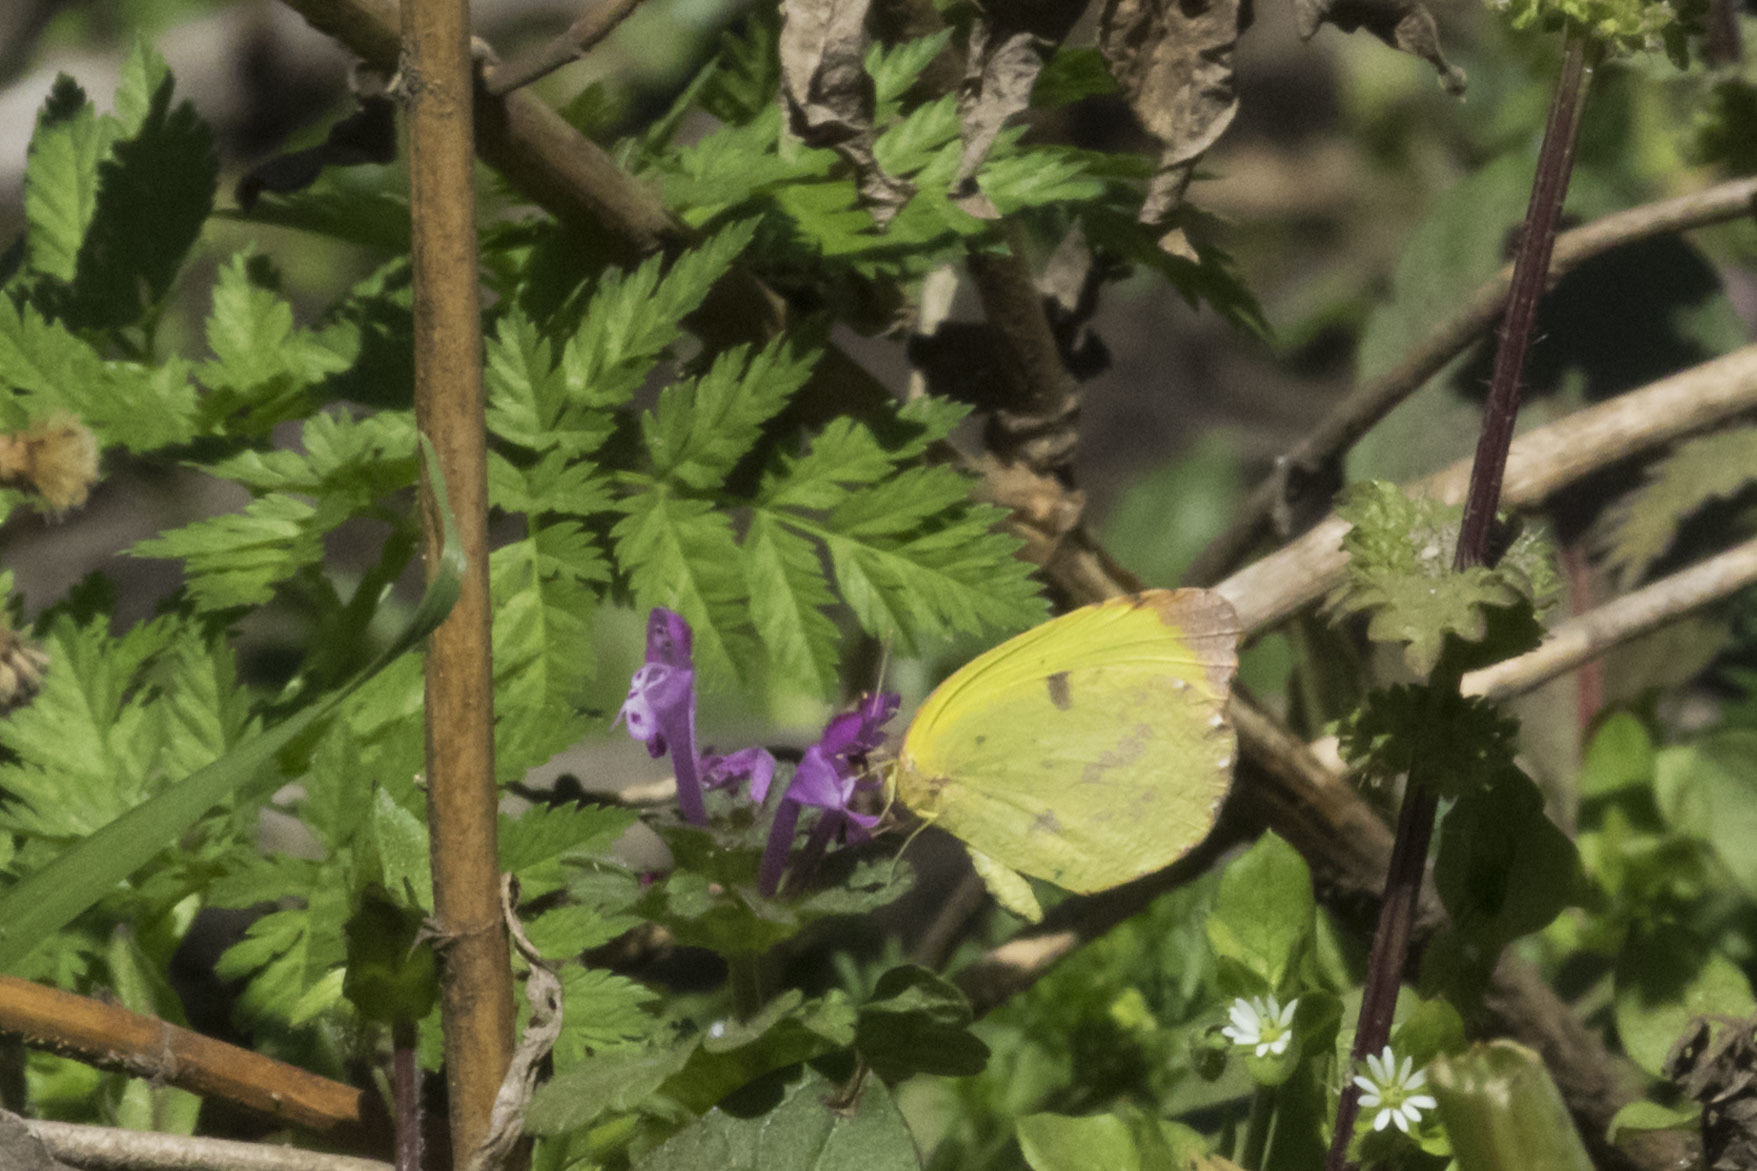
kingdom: Animalia
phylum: Arthropoda
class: Insecta
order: Lepidoptera
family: Pieridae
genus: Teriocolias
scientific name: Teriocolias
